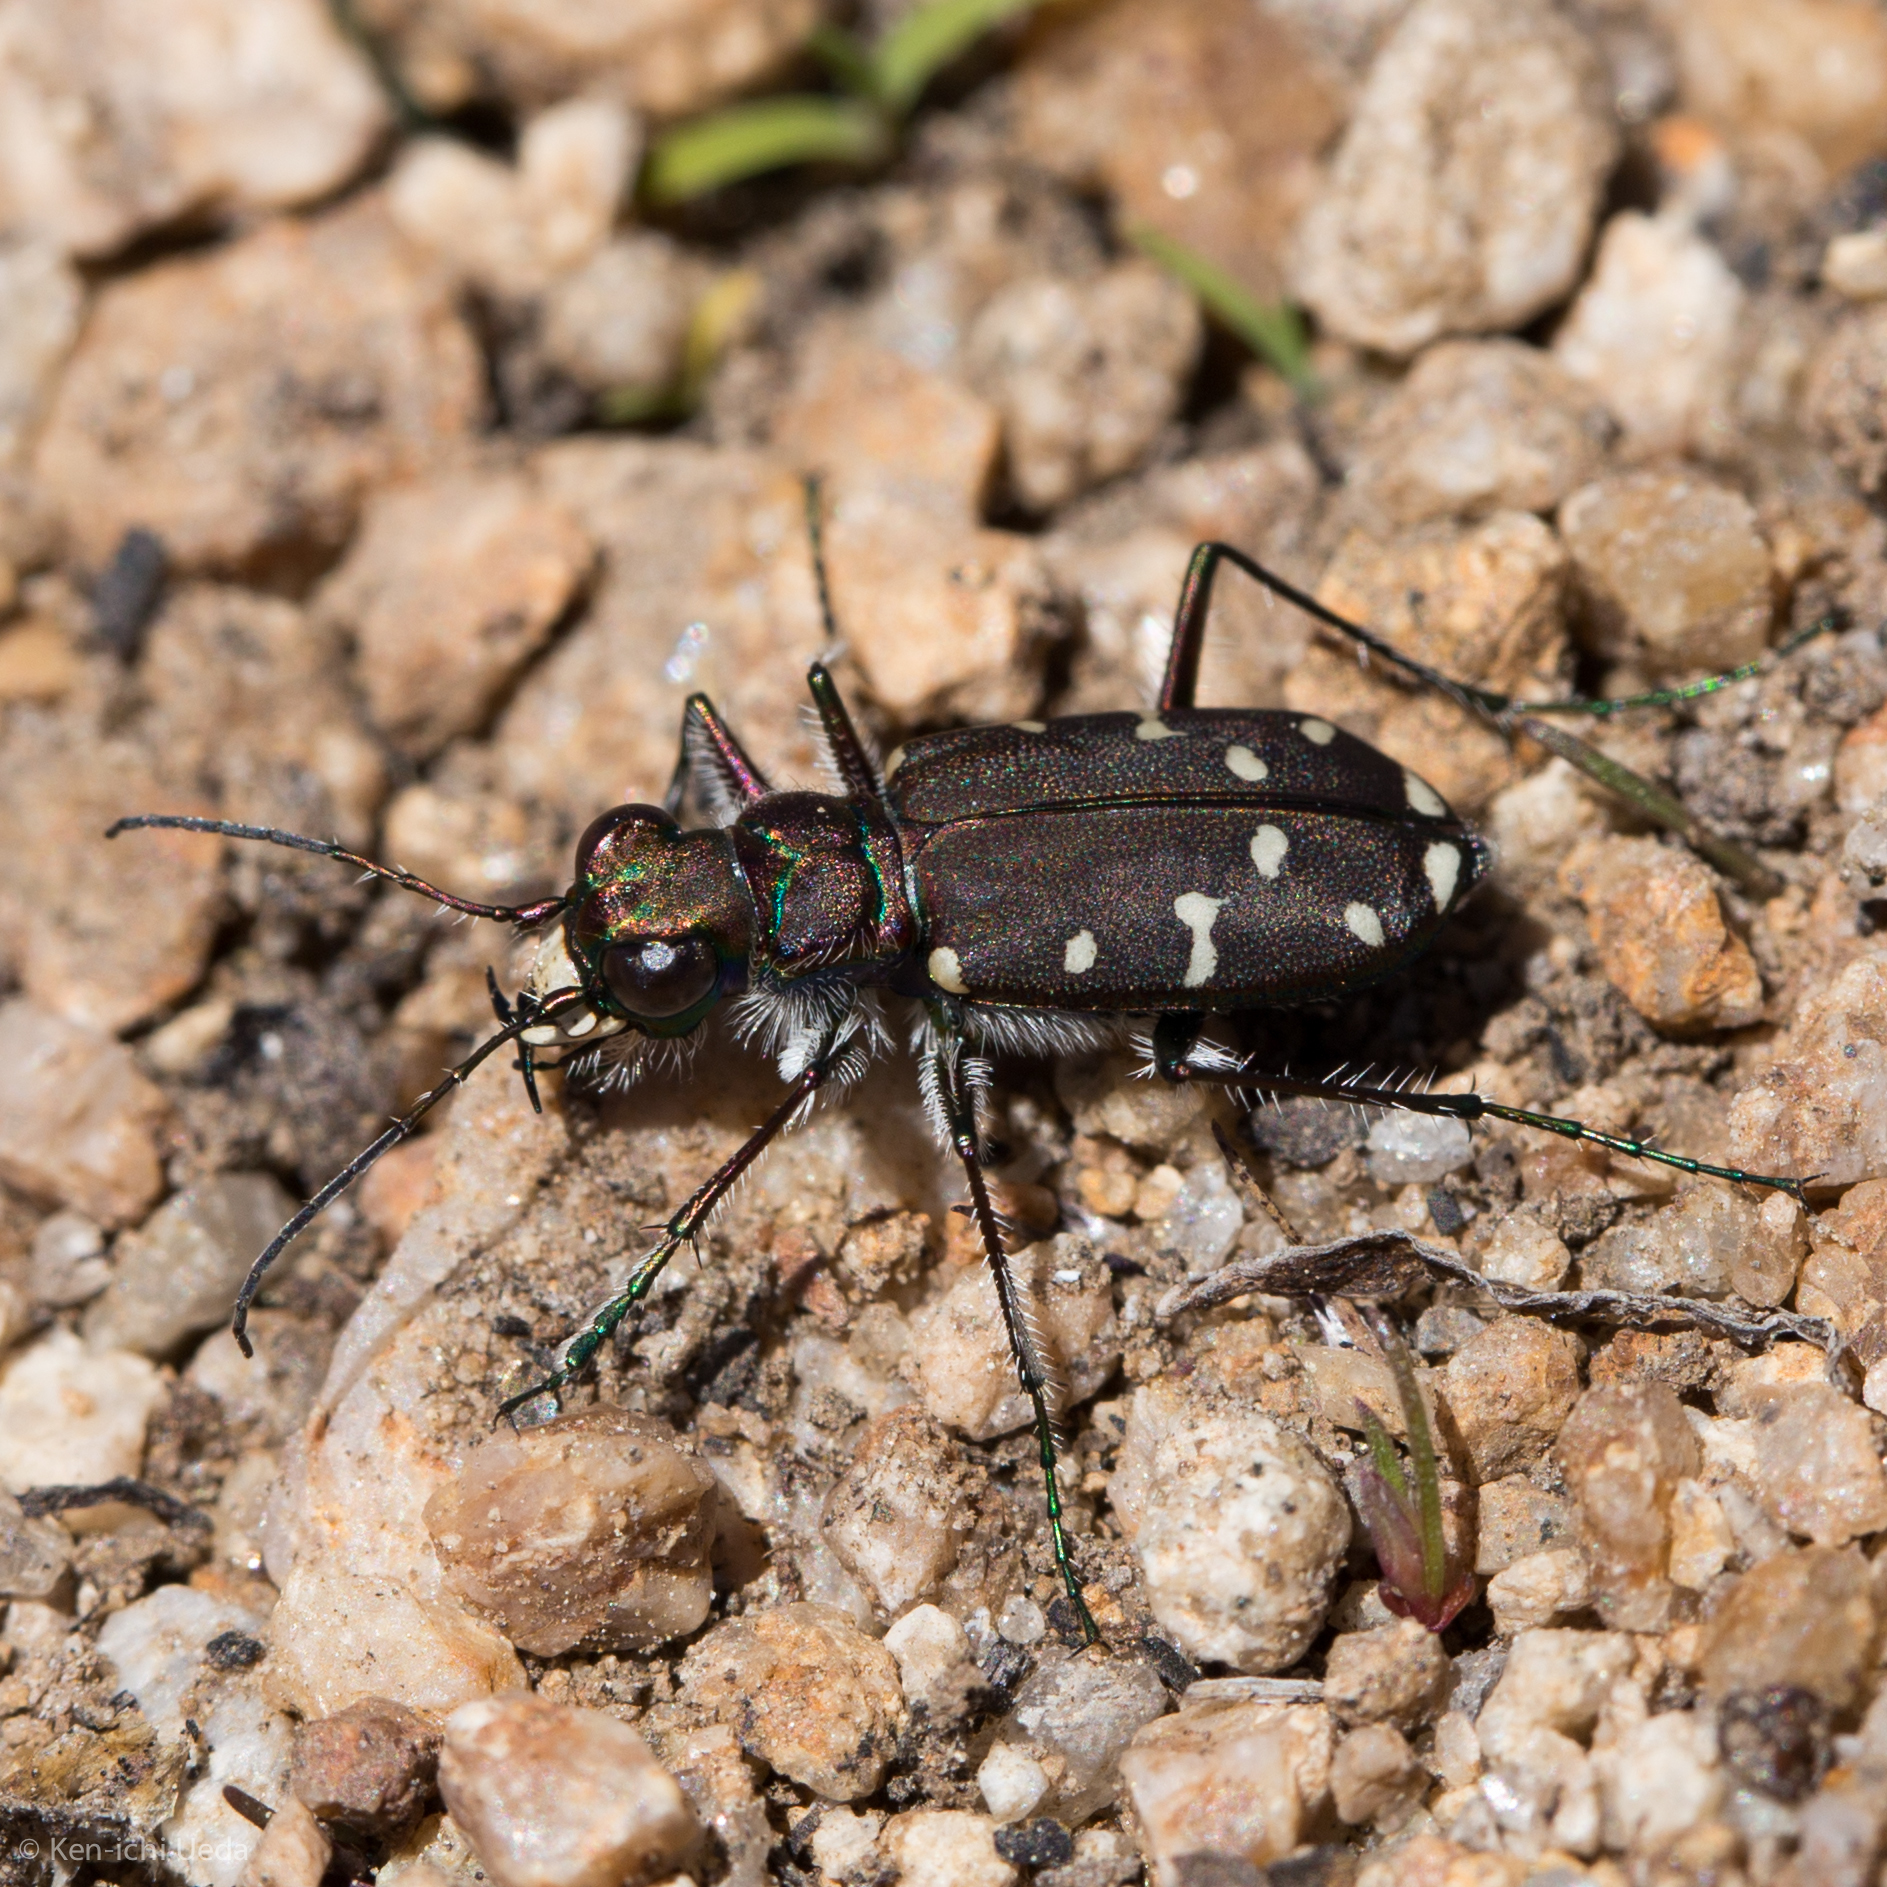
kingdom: Animalia
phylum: Arthropoda
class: Insecta
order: Coleoptera
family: Carabidae
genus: Cicindela
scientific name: Cicindela oregona
